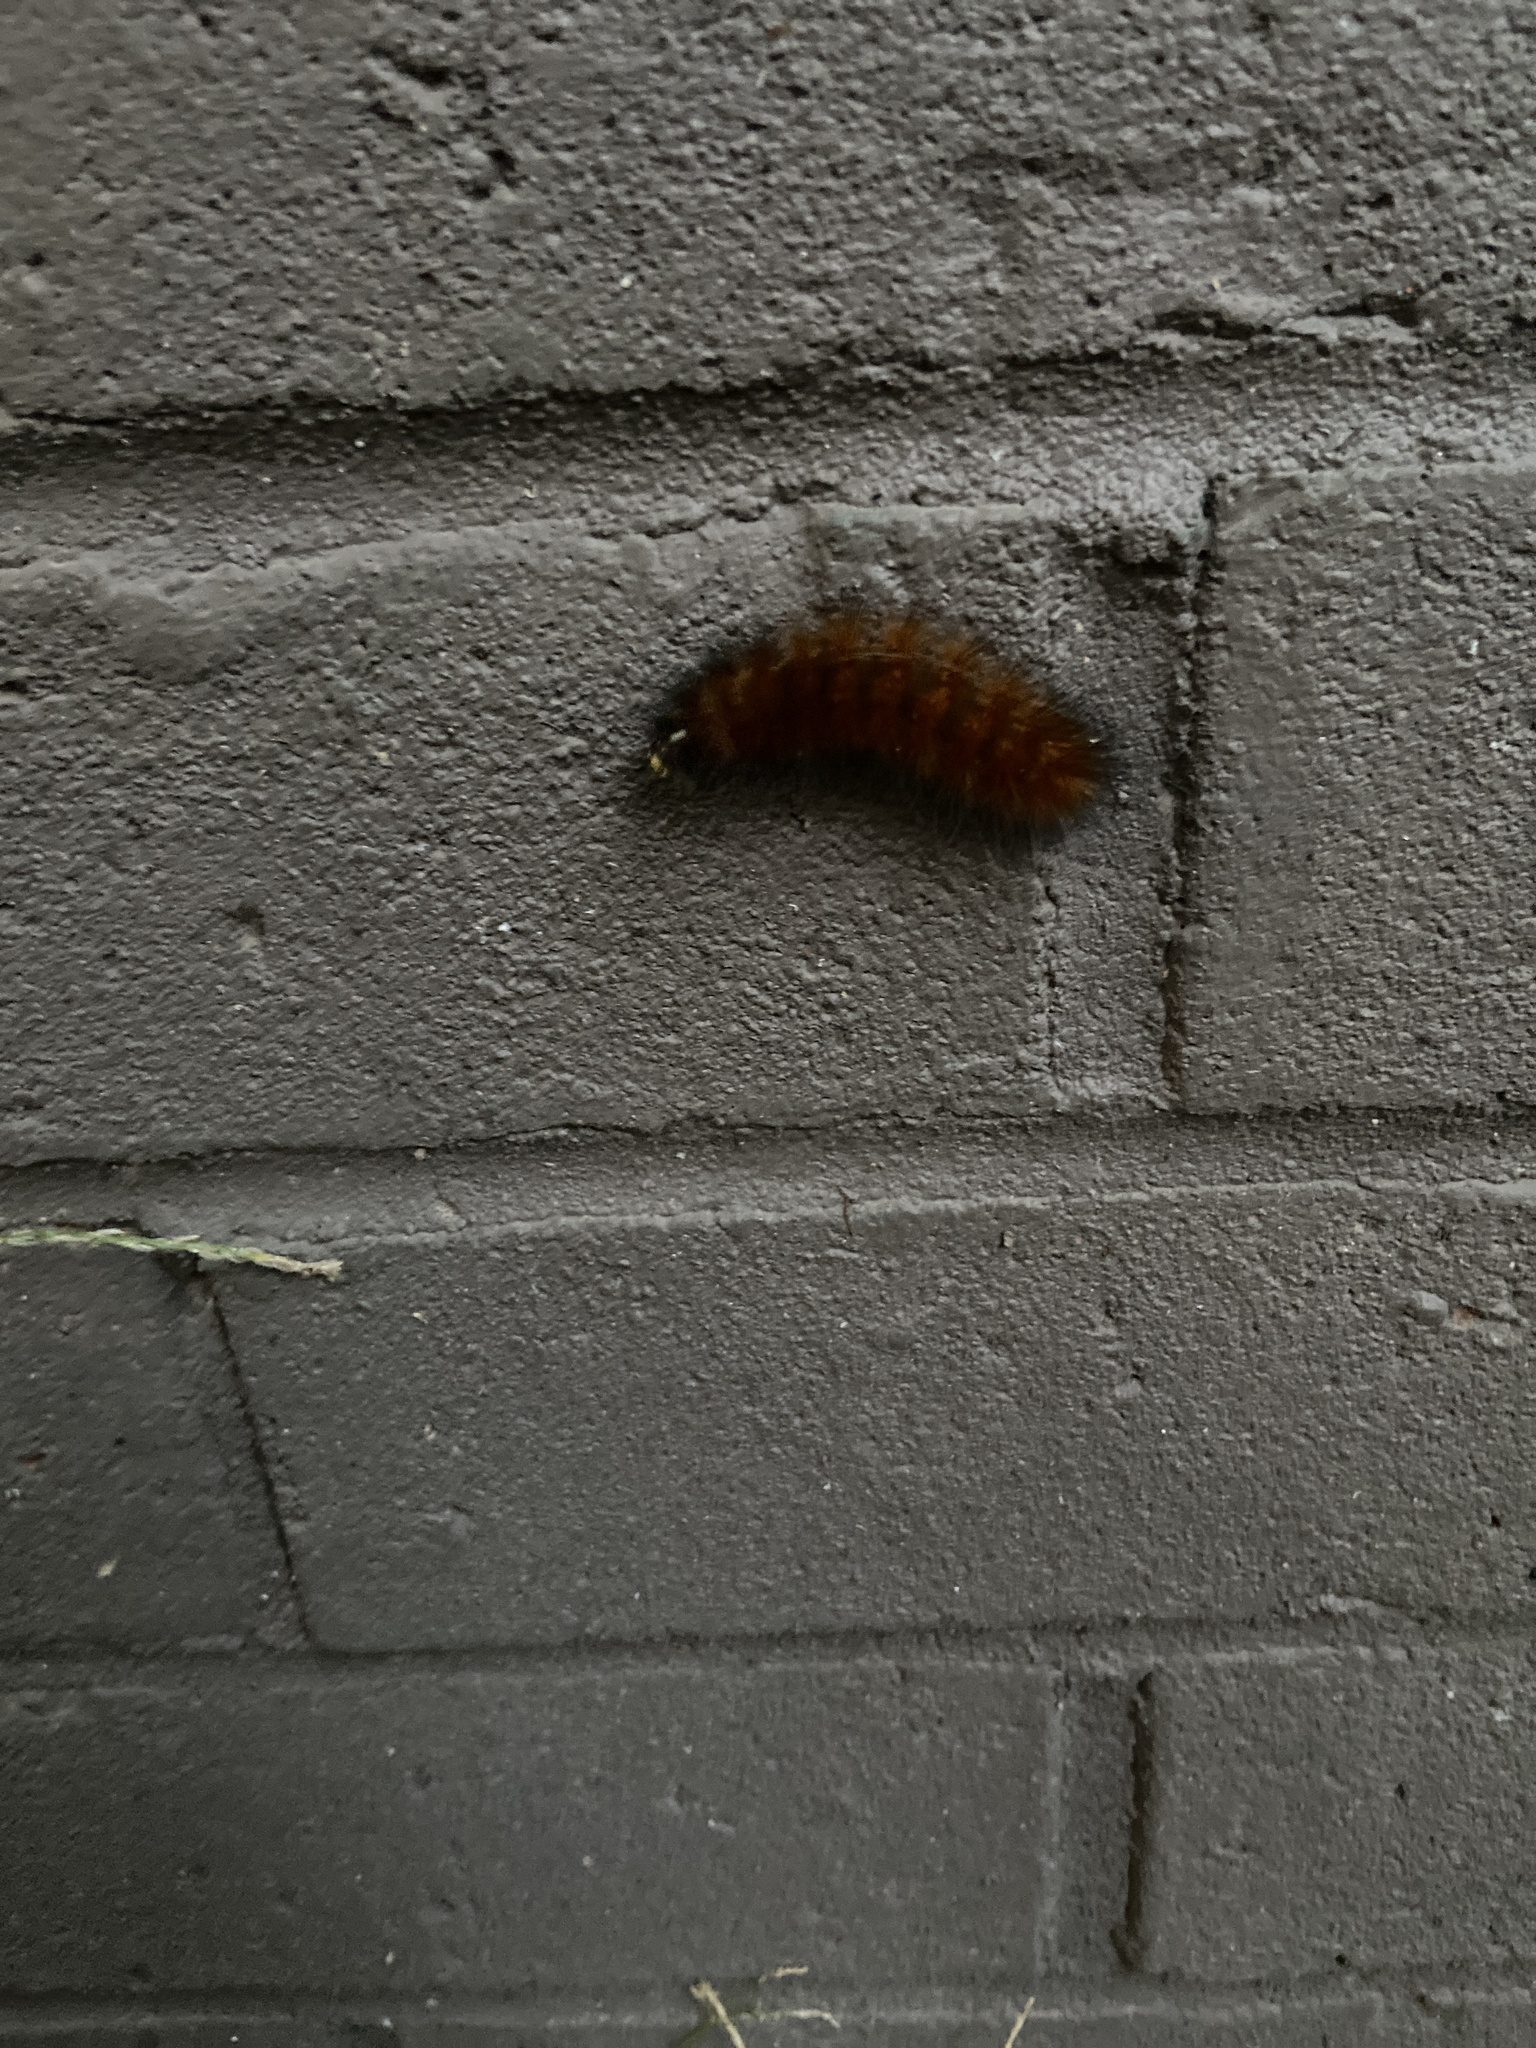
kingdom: Animalia
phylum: Arthropoda
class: Insecta
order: Lepidoptera
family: Erebidae
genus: Spilosoma
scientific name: Spilosoma virginica
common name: Virginia tiger moth
